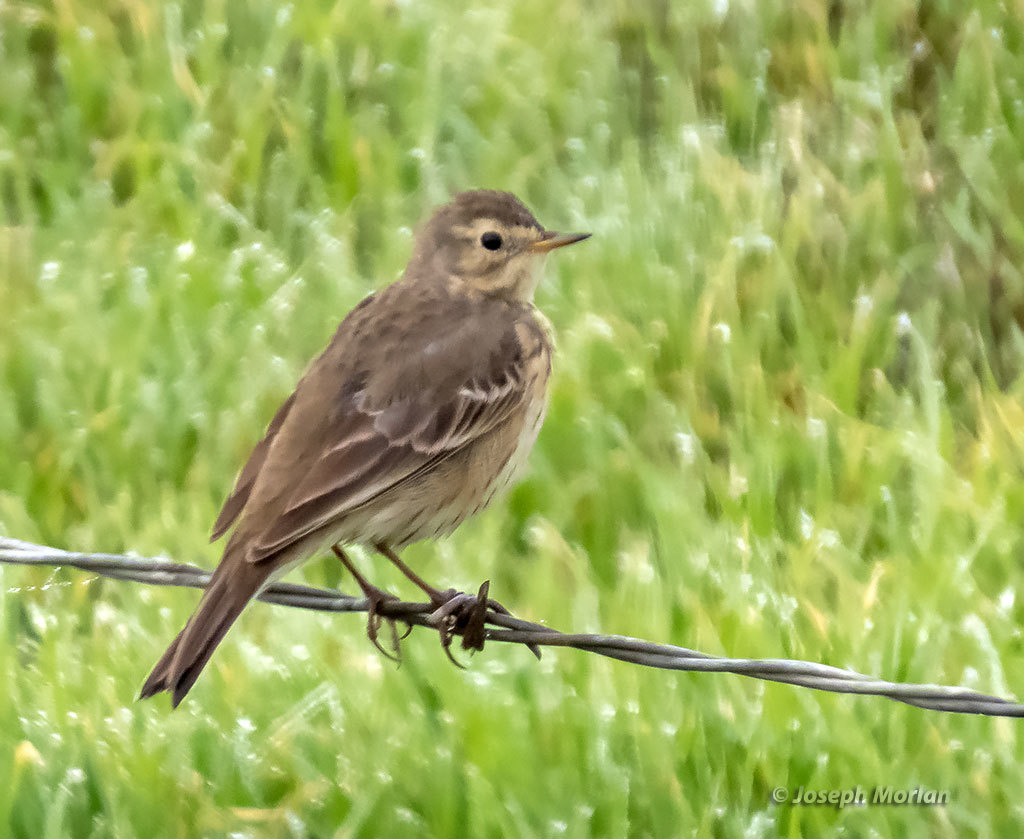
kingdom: Animalia
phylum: Chordata
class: Aves
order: Passeriformes
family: Motacillidae
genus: Anthus
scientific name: Anthus rubescens
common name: Buff-bellied pipit
